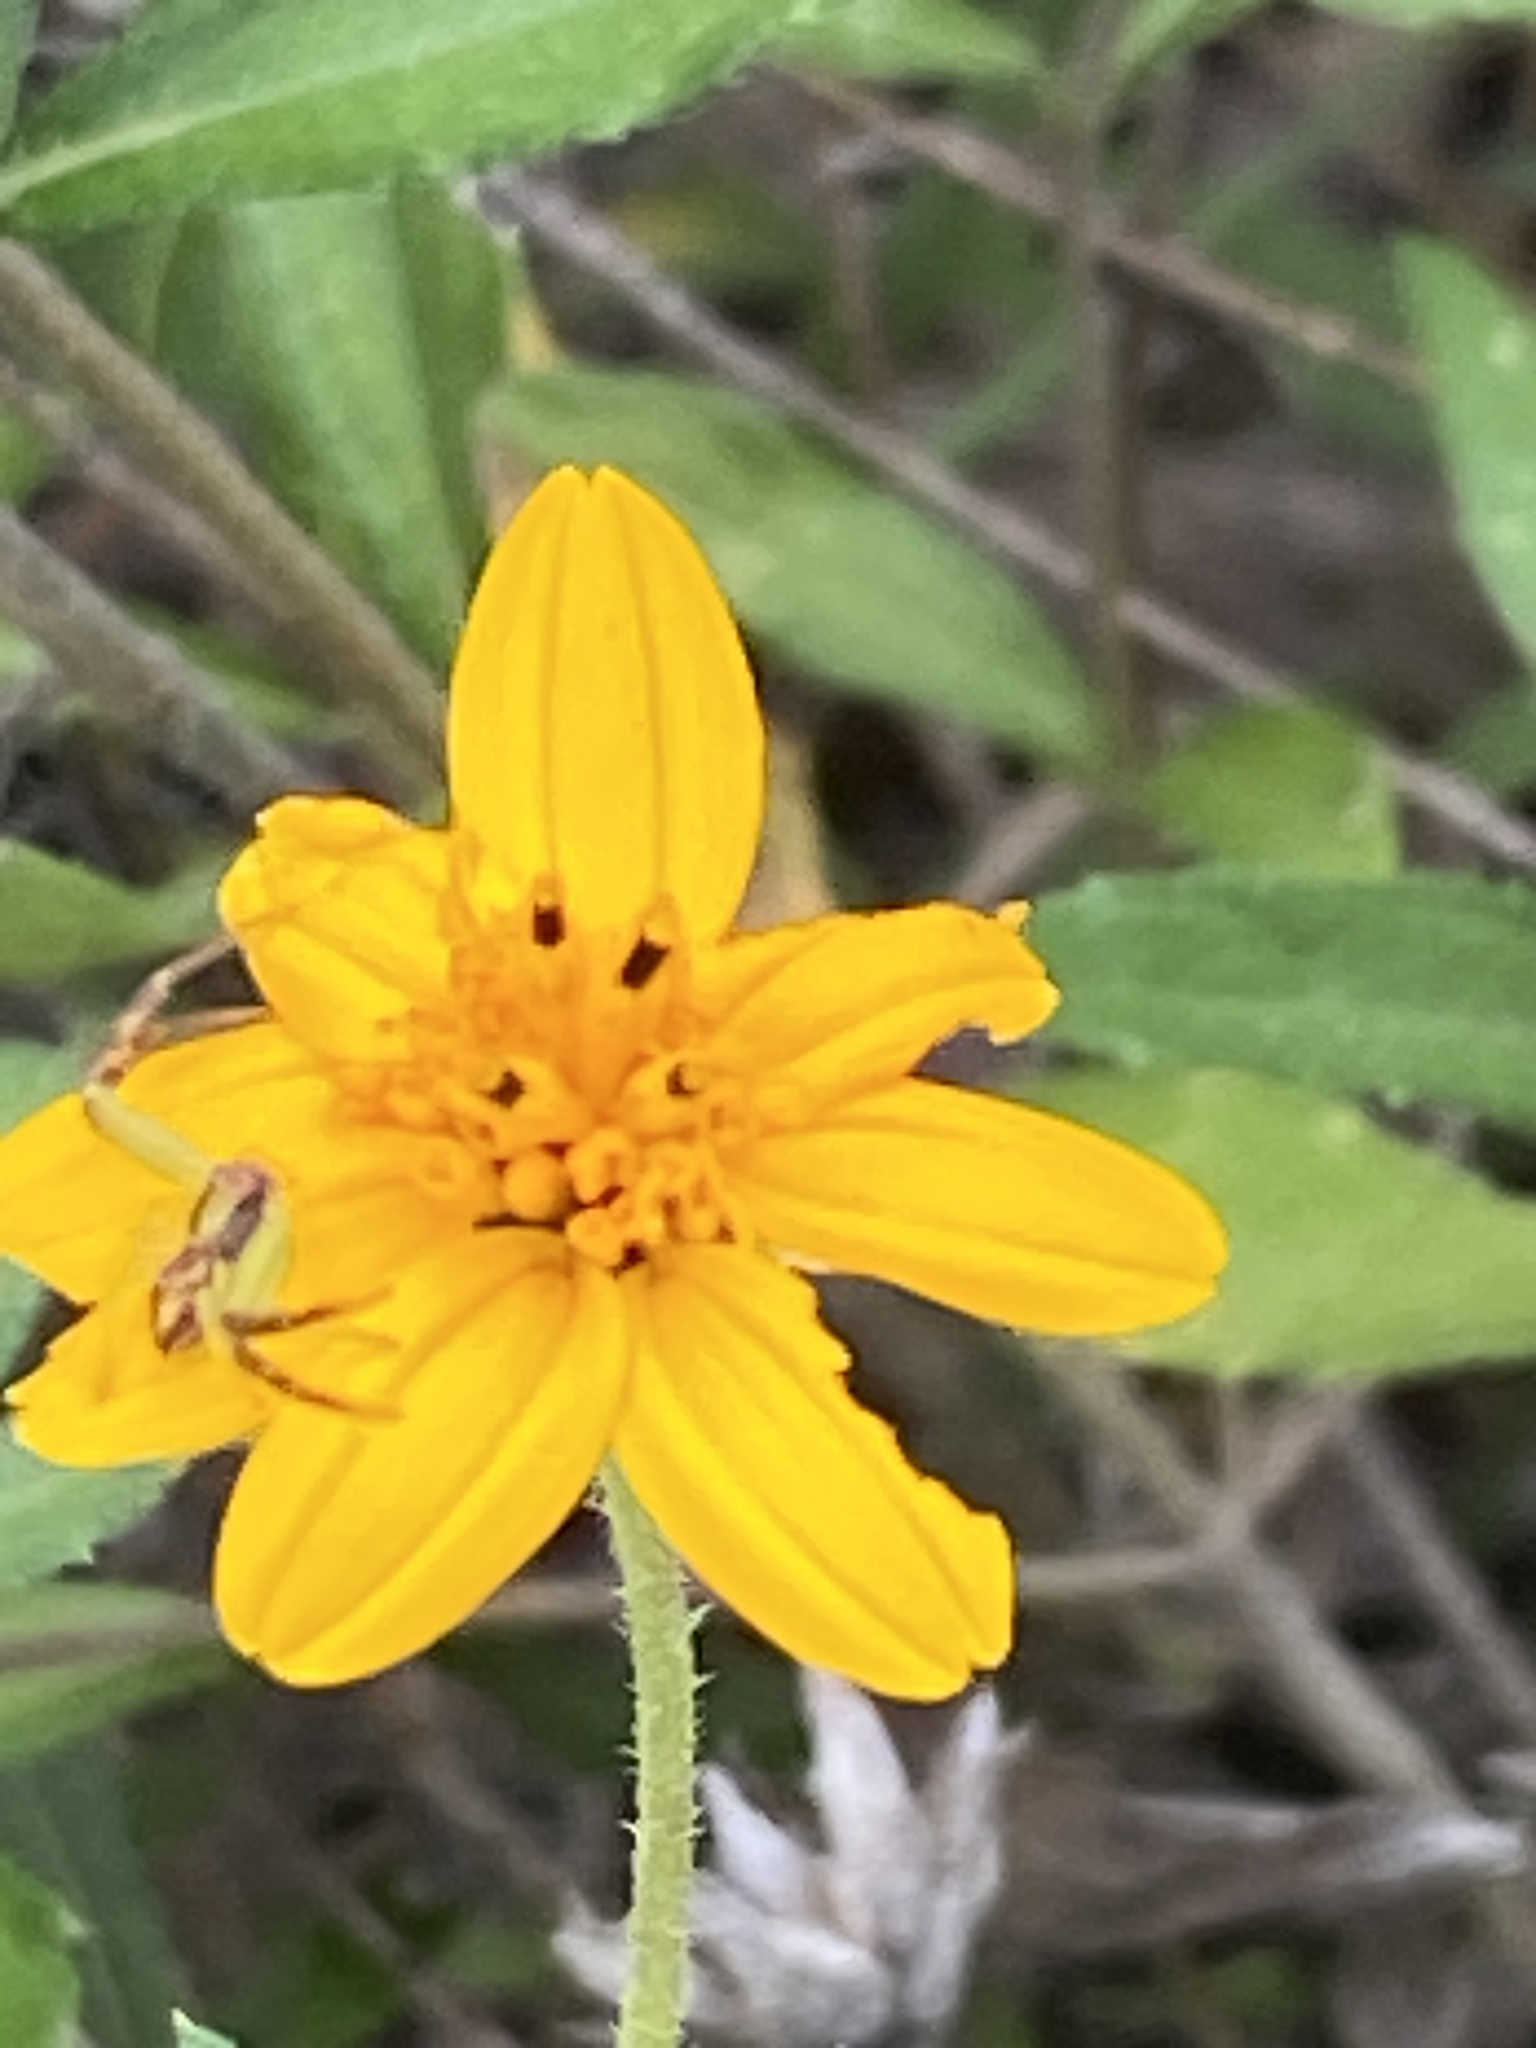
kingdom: Plantae
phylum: Tracheophyta
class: Magnoliopsida
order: Asterales
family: Asteraceae
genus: Wedelia
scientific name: Wedelia acapulcensis
